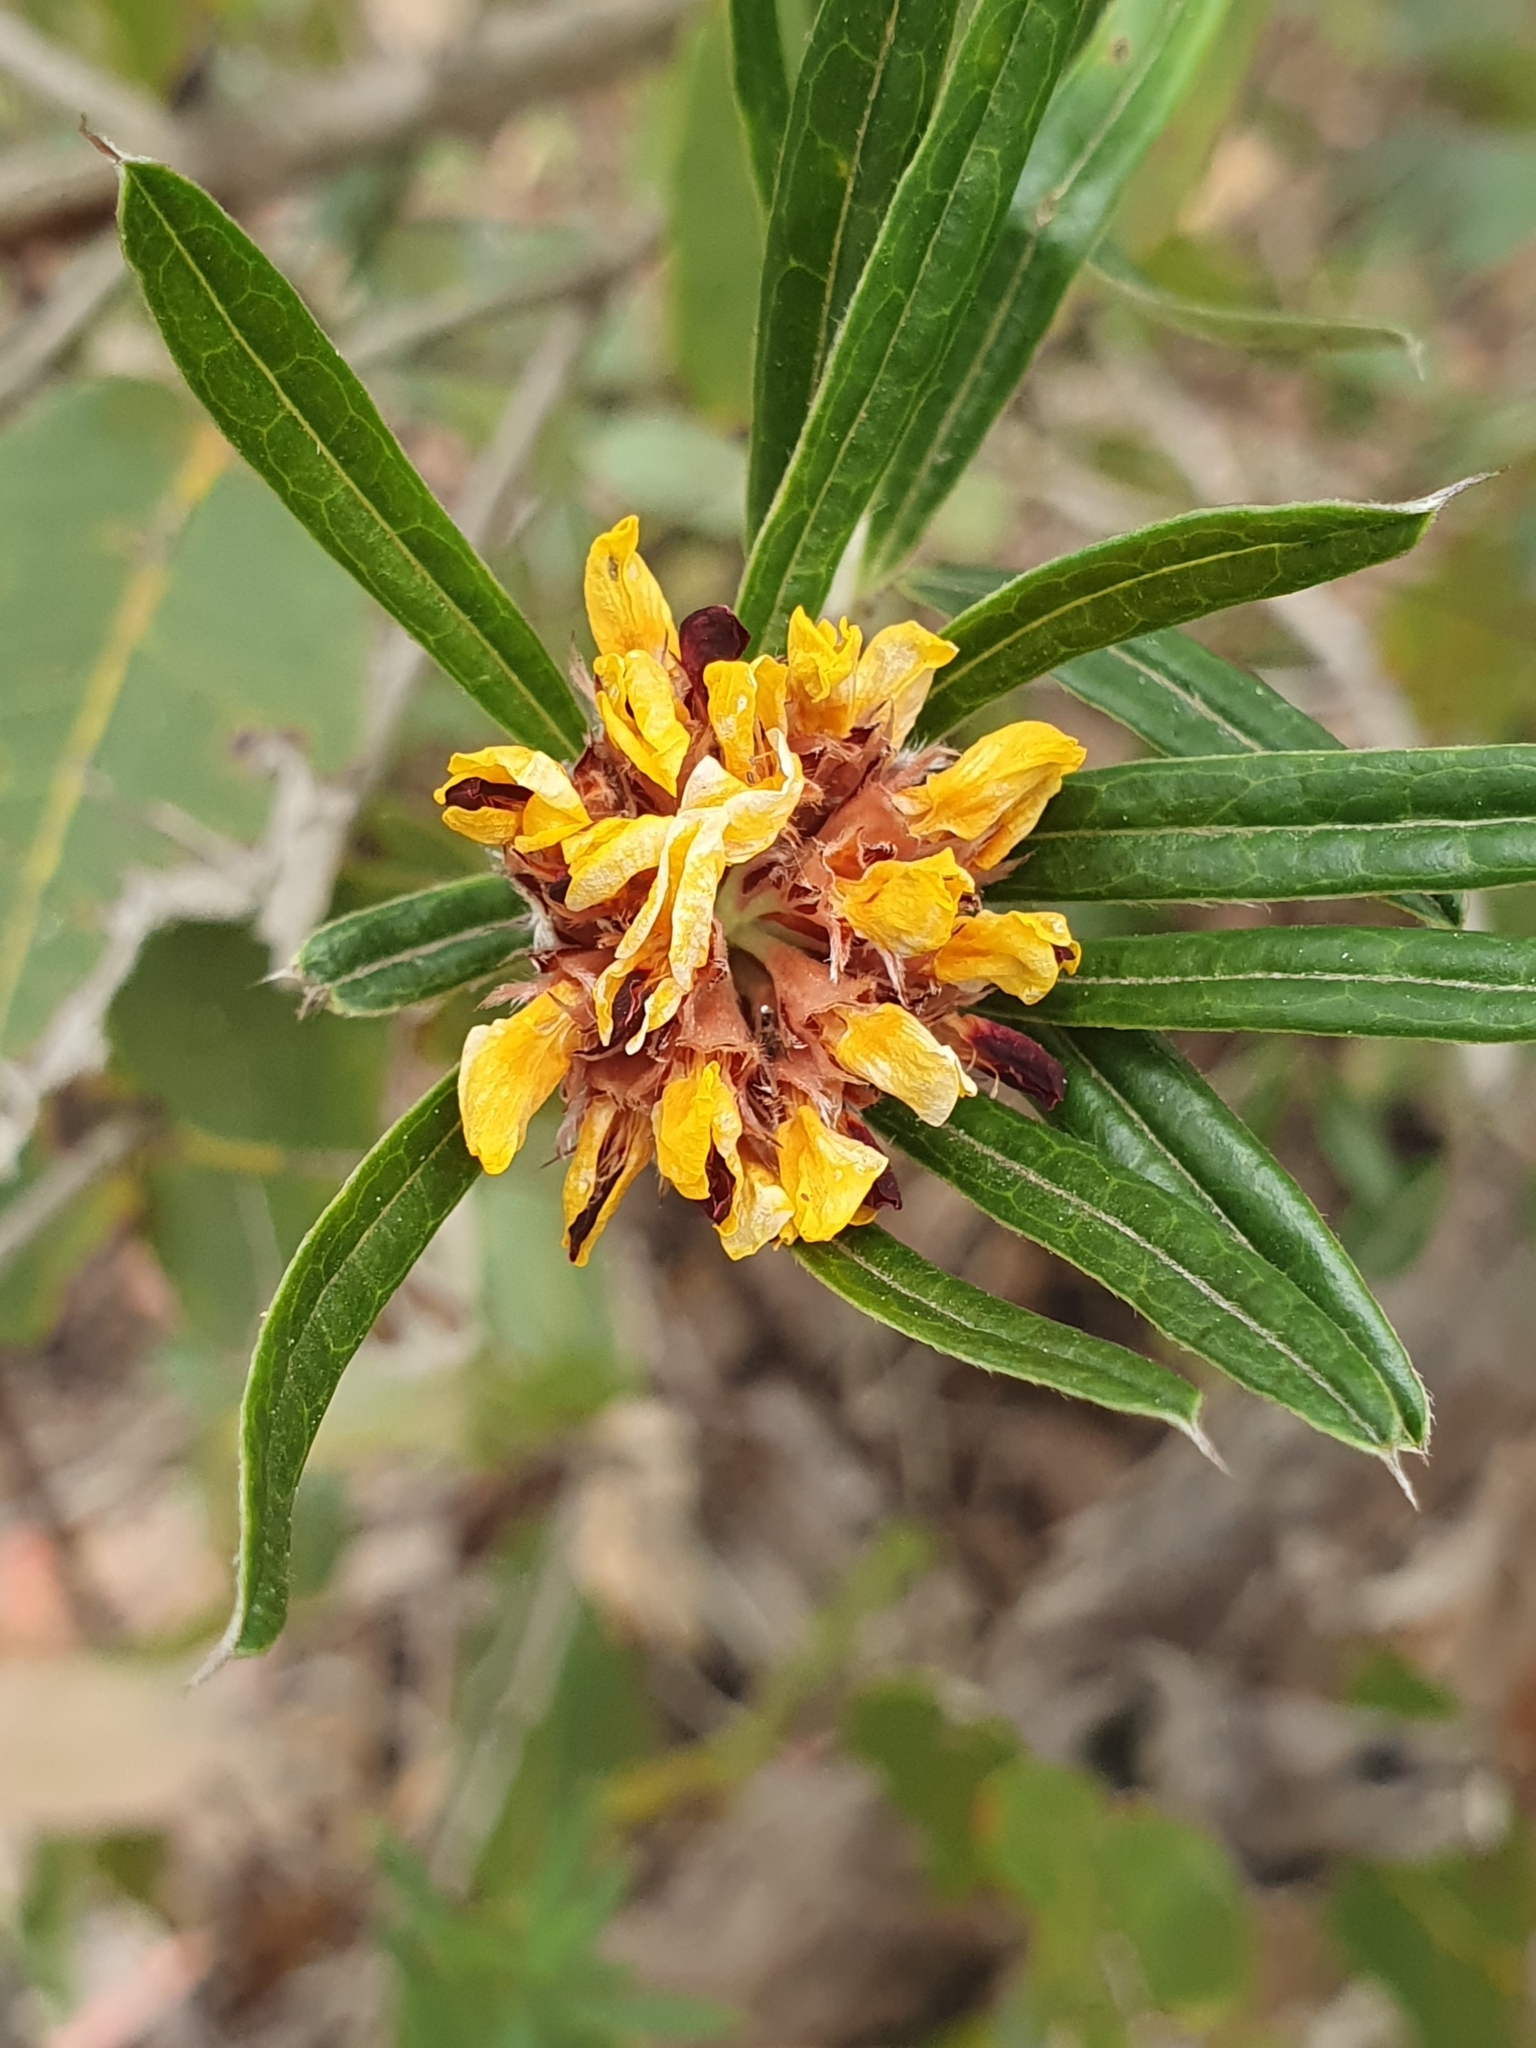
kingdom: Plantae
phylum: Tracheophyta
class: Magnoliopsida
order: Fabales
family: Fabaceae
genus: Pultenaea
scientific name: Pultenaea rosmarinifolia
